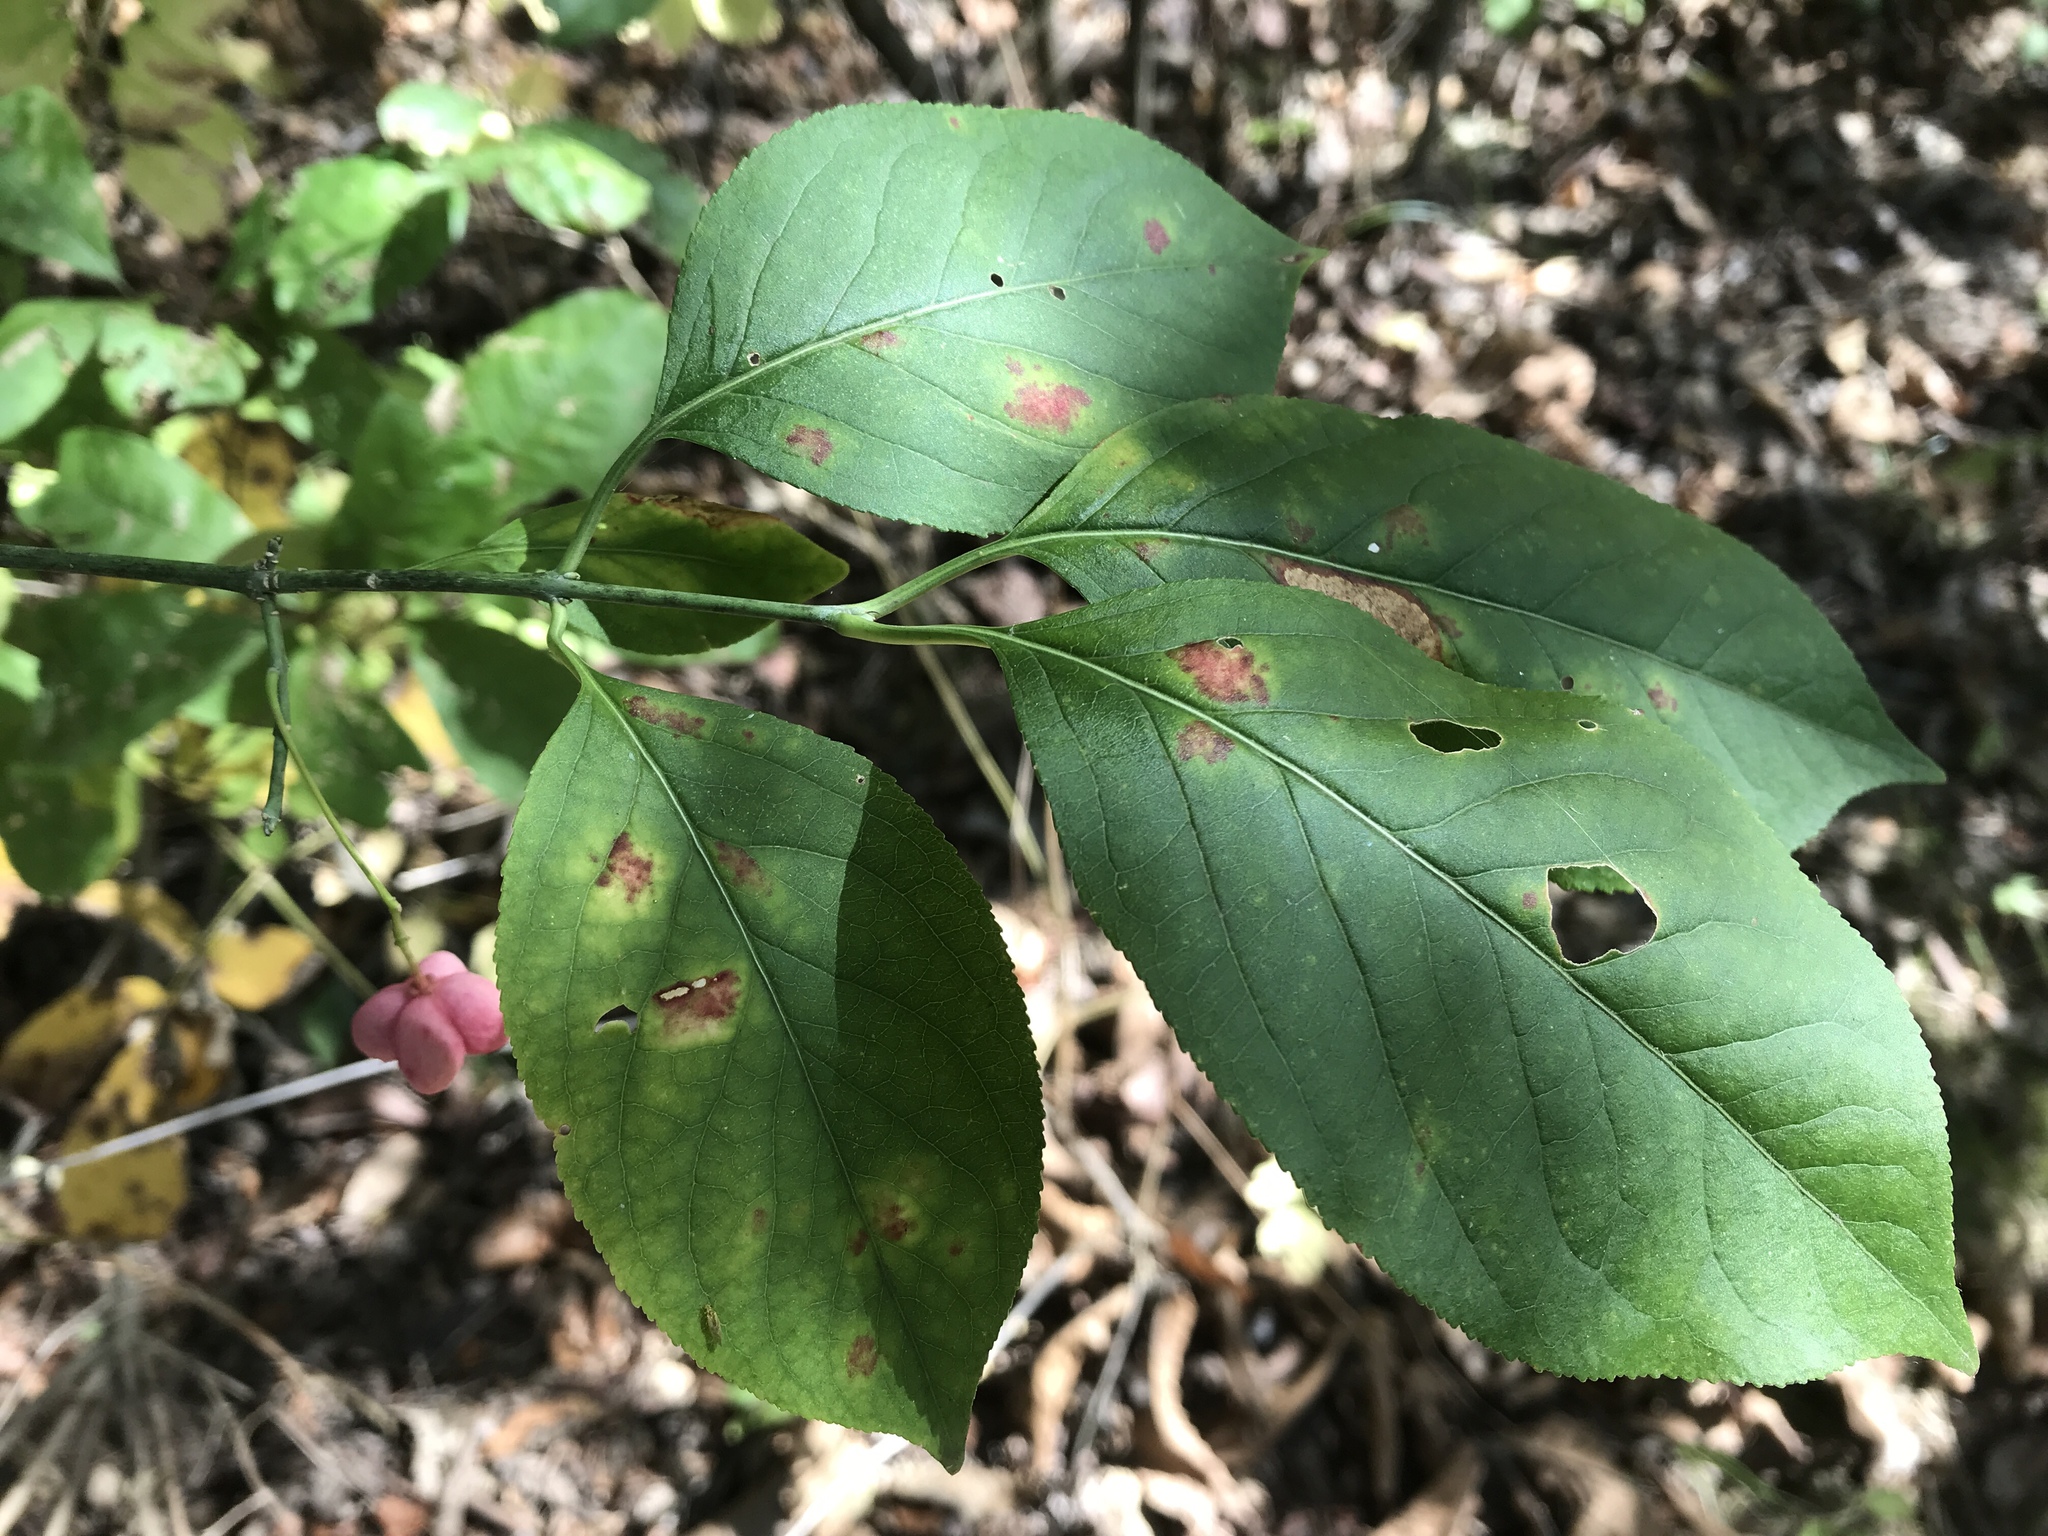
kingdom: Plantae
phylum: Tracheophyta
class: Magnoliopsida
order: Celastrales
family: Celastraceae
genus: Euonymus
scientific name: Euonymus atropurpureus
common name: Eastern wahoo
